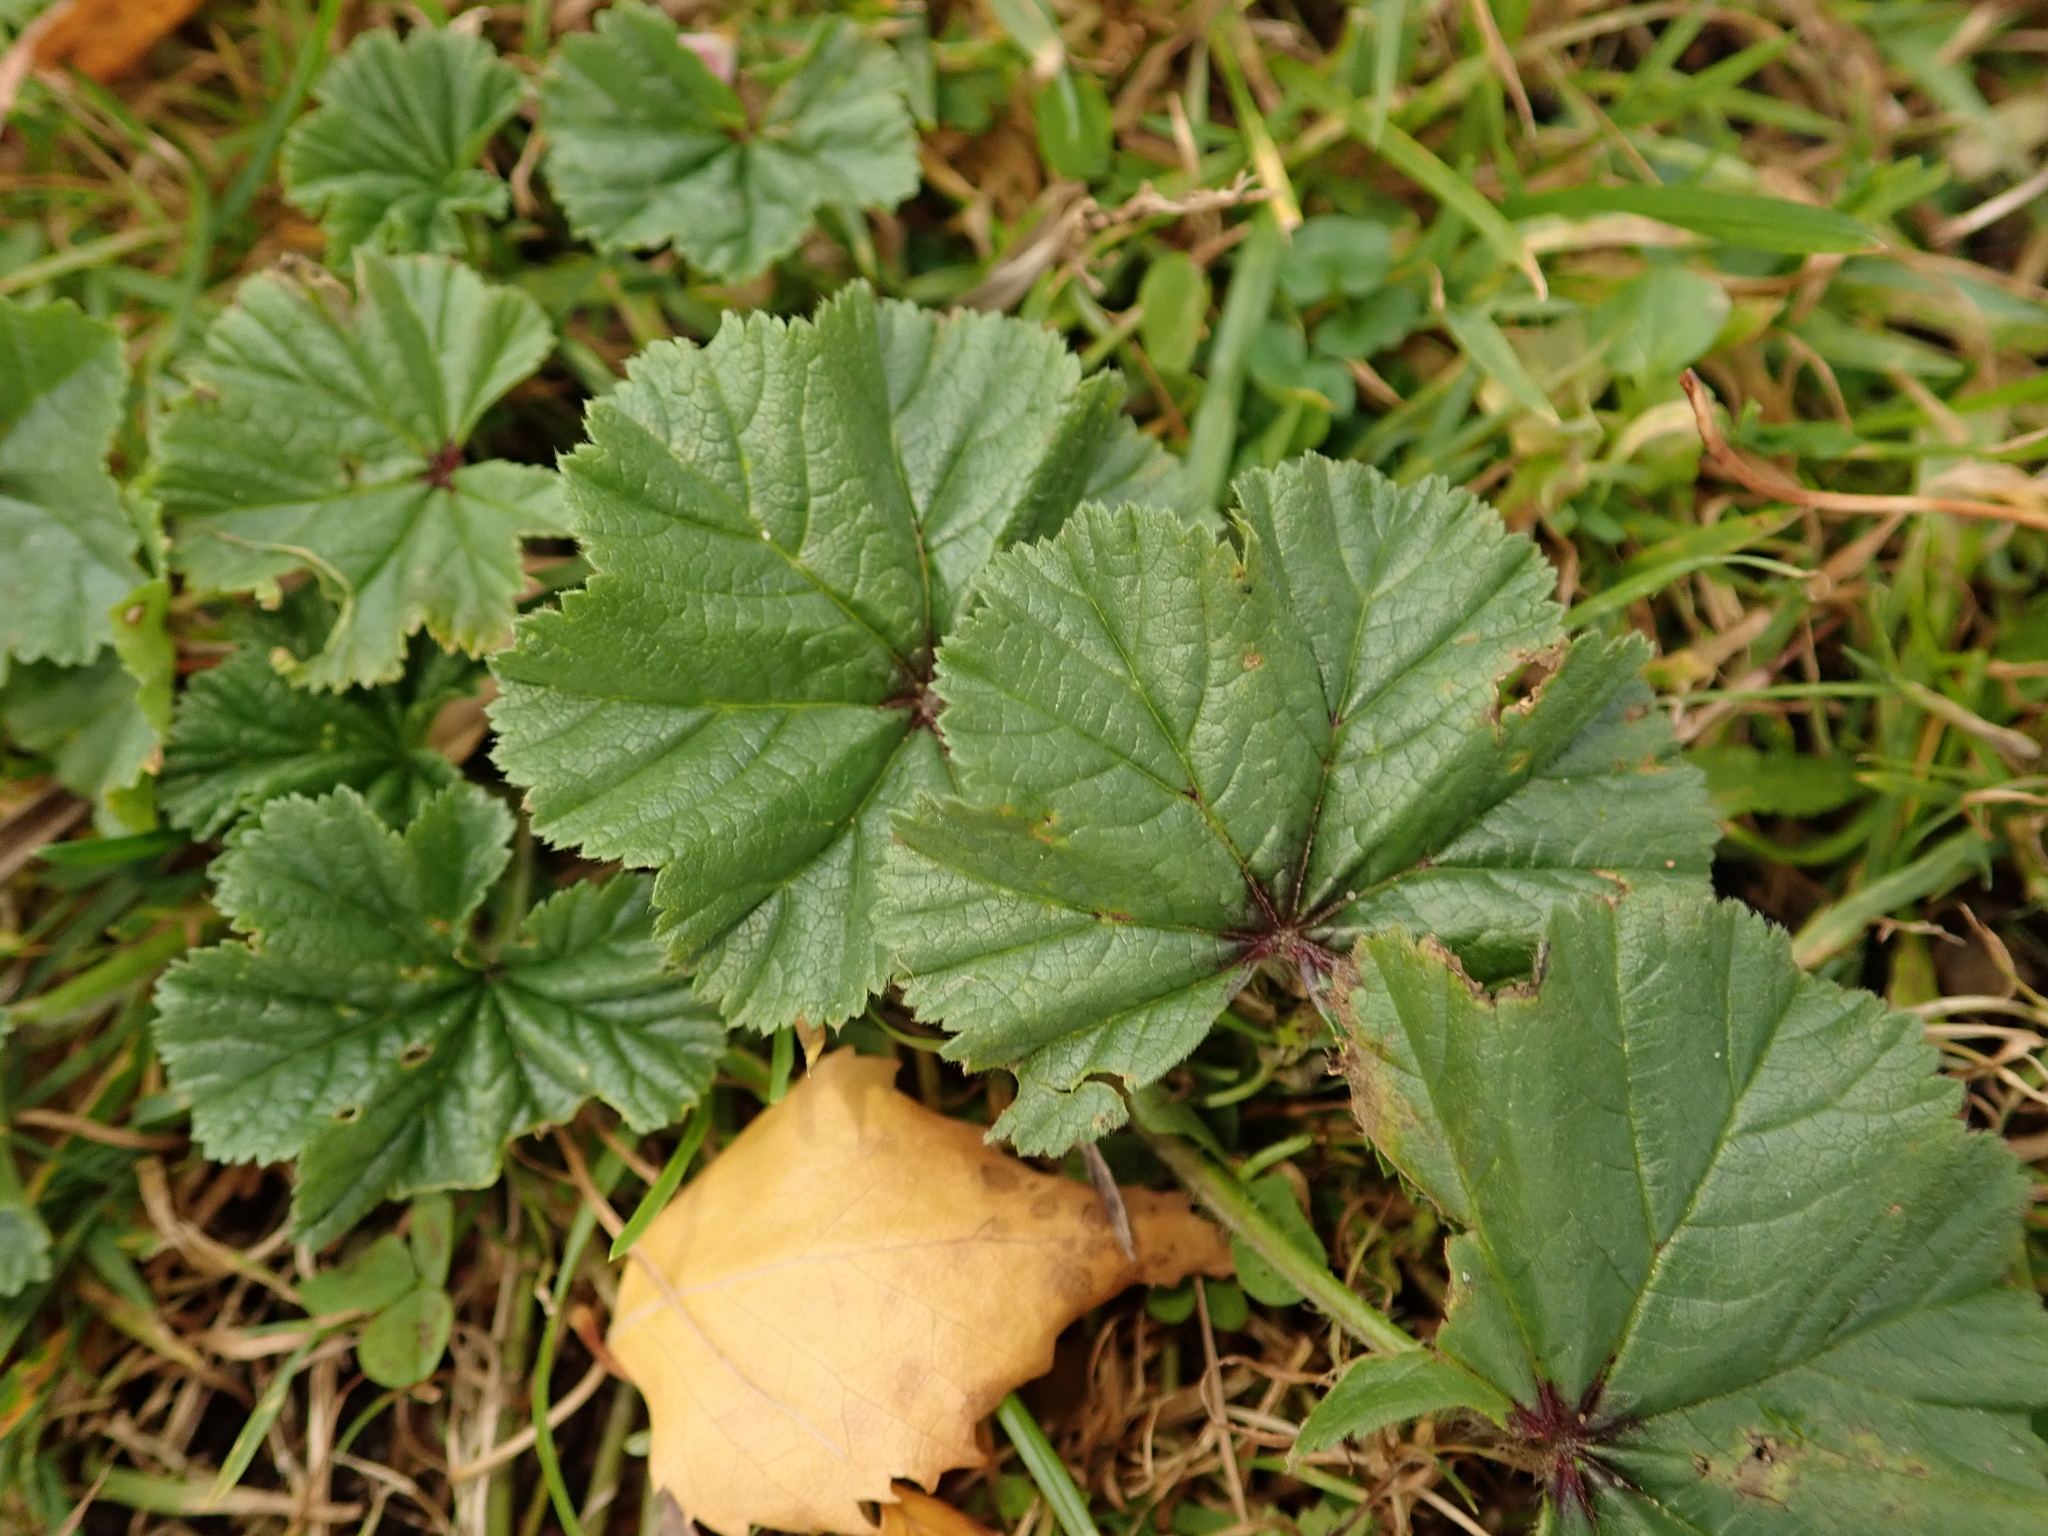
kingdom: Plantae
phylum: Tracheophyta
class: Magnoliopsida
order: Malvales
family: Malvaceae
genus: Malva
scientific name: Malva neglecta
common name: Common mallow
